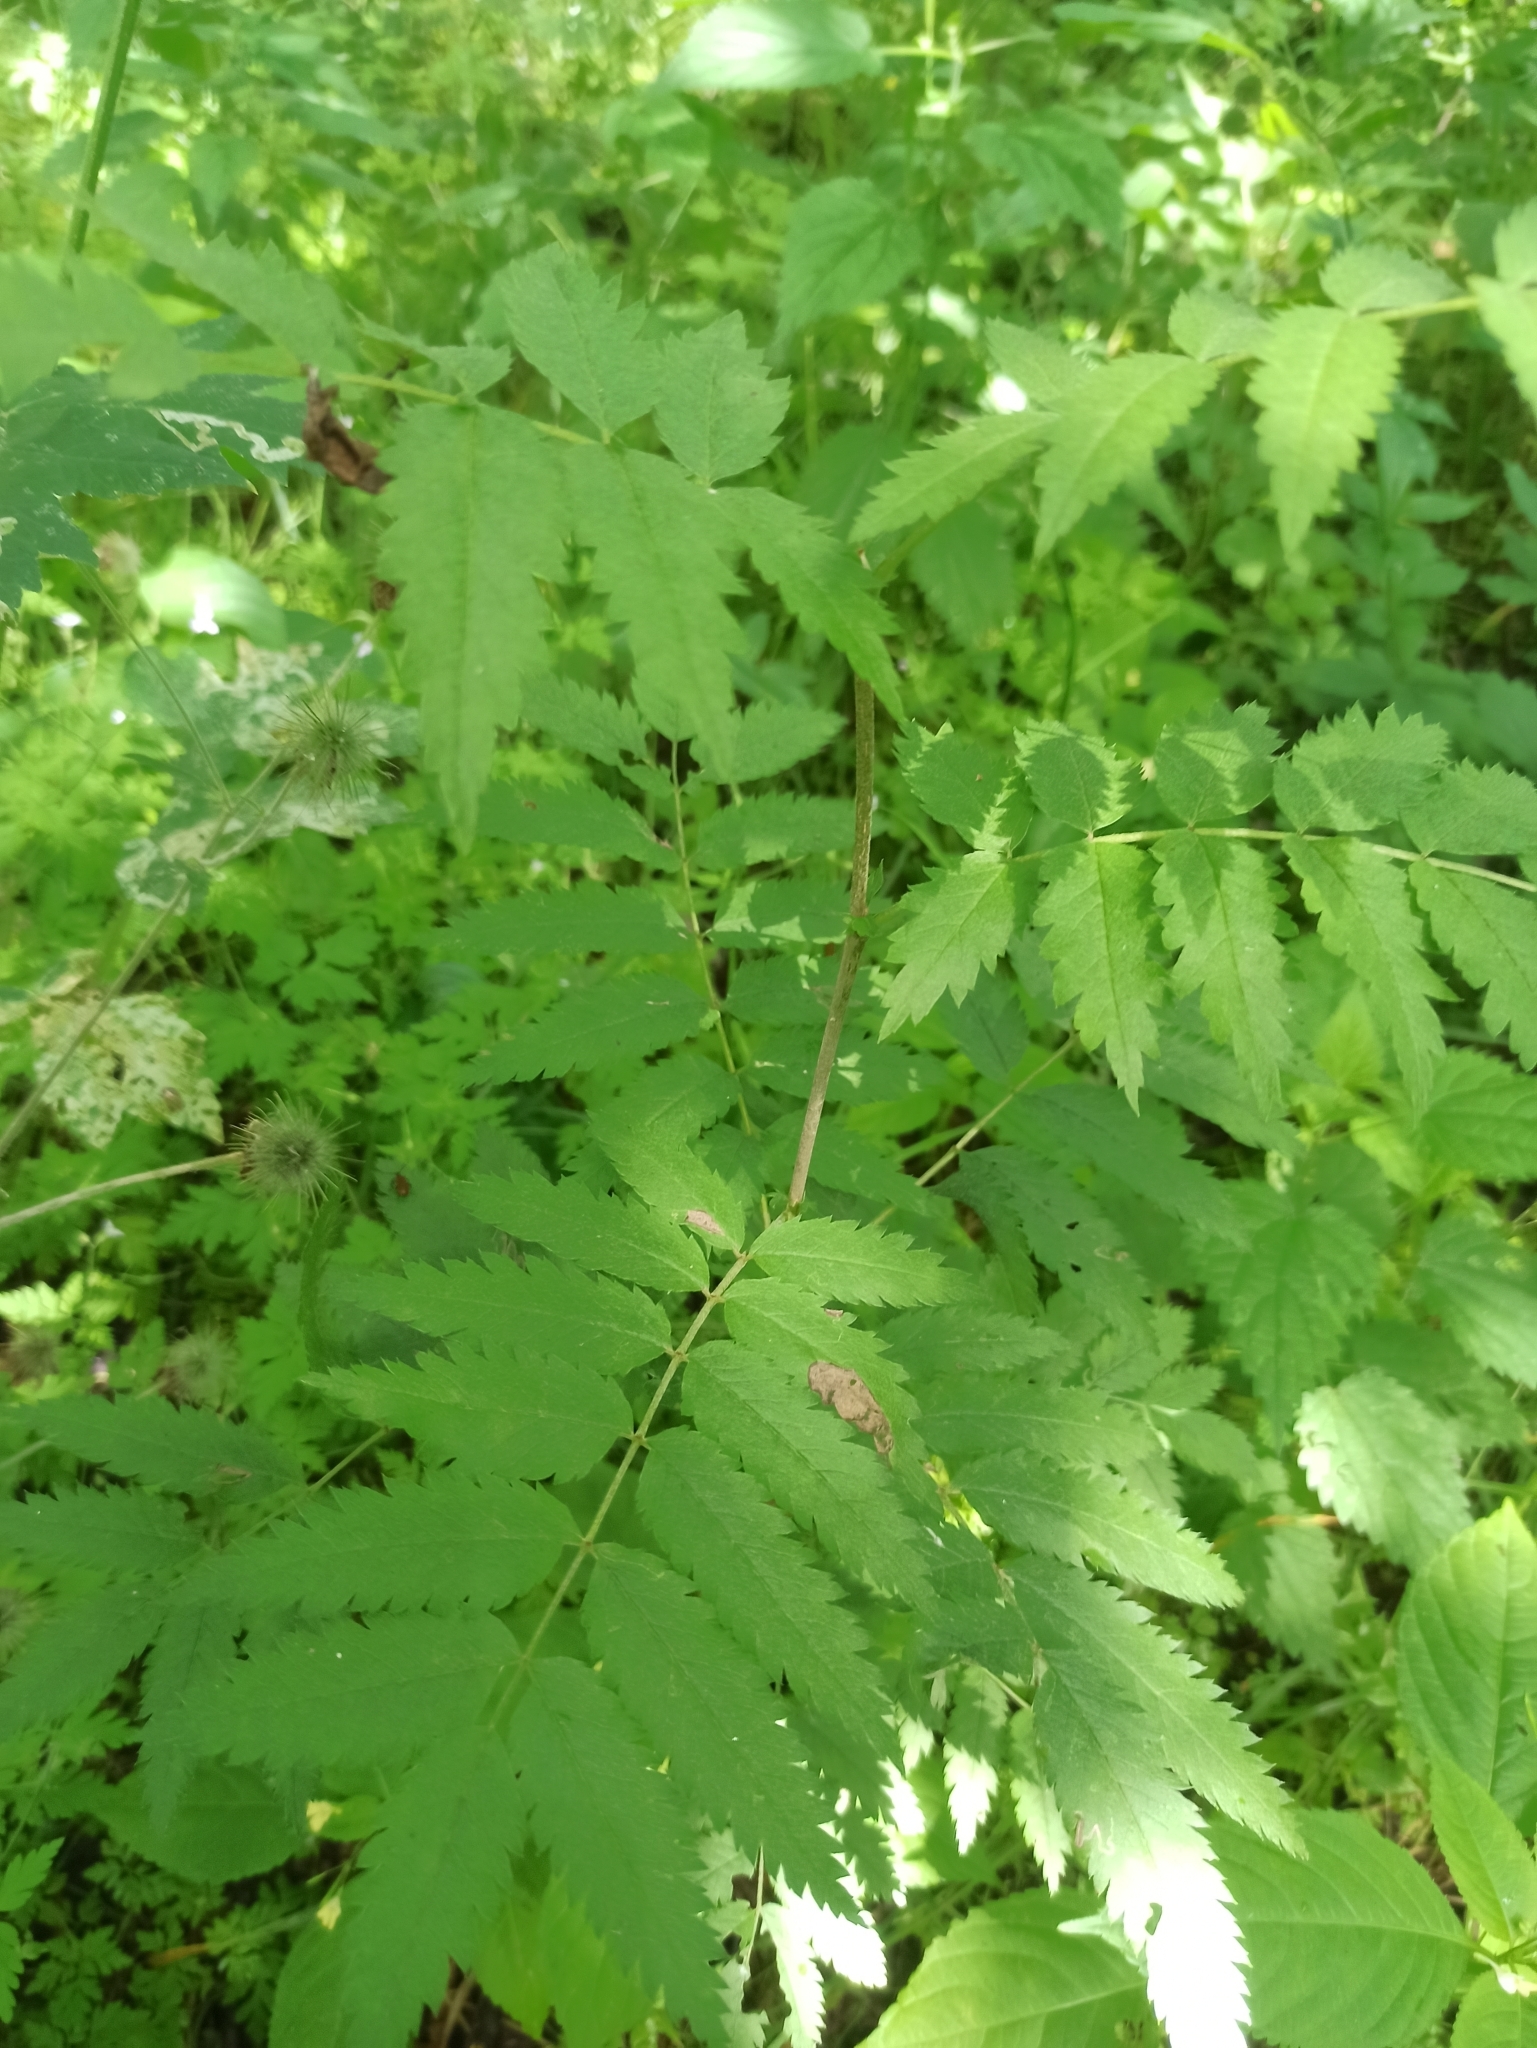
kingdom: Plantae
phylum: Tracheophyta
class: Magnoliopsida
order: Rosales
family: Rosaceae
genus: Sorbus
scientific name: Sorbus aucuparia
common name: Rowan
